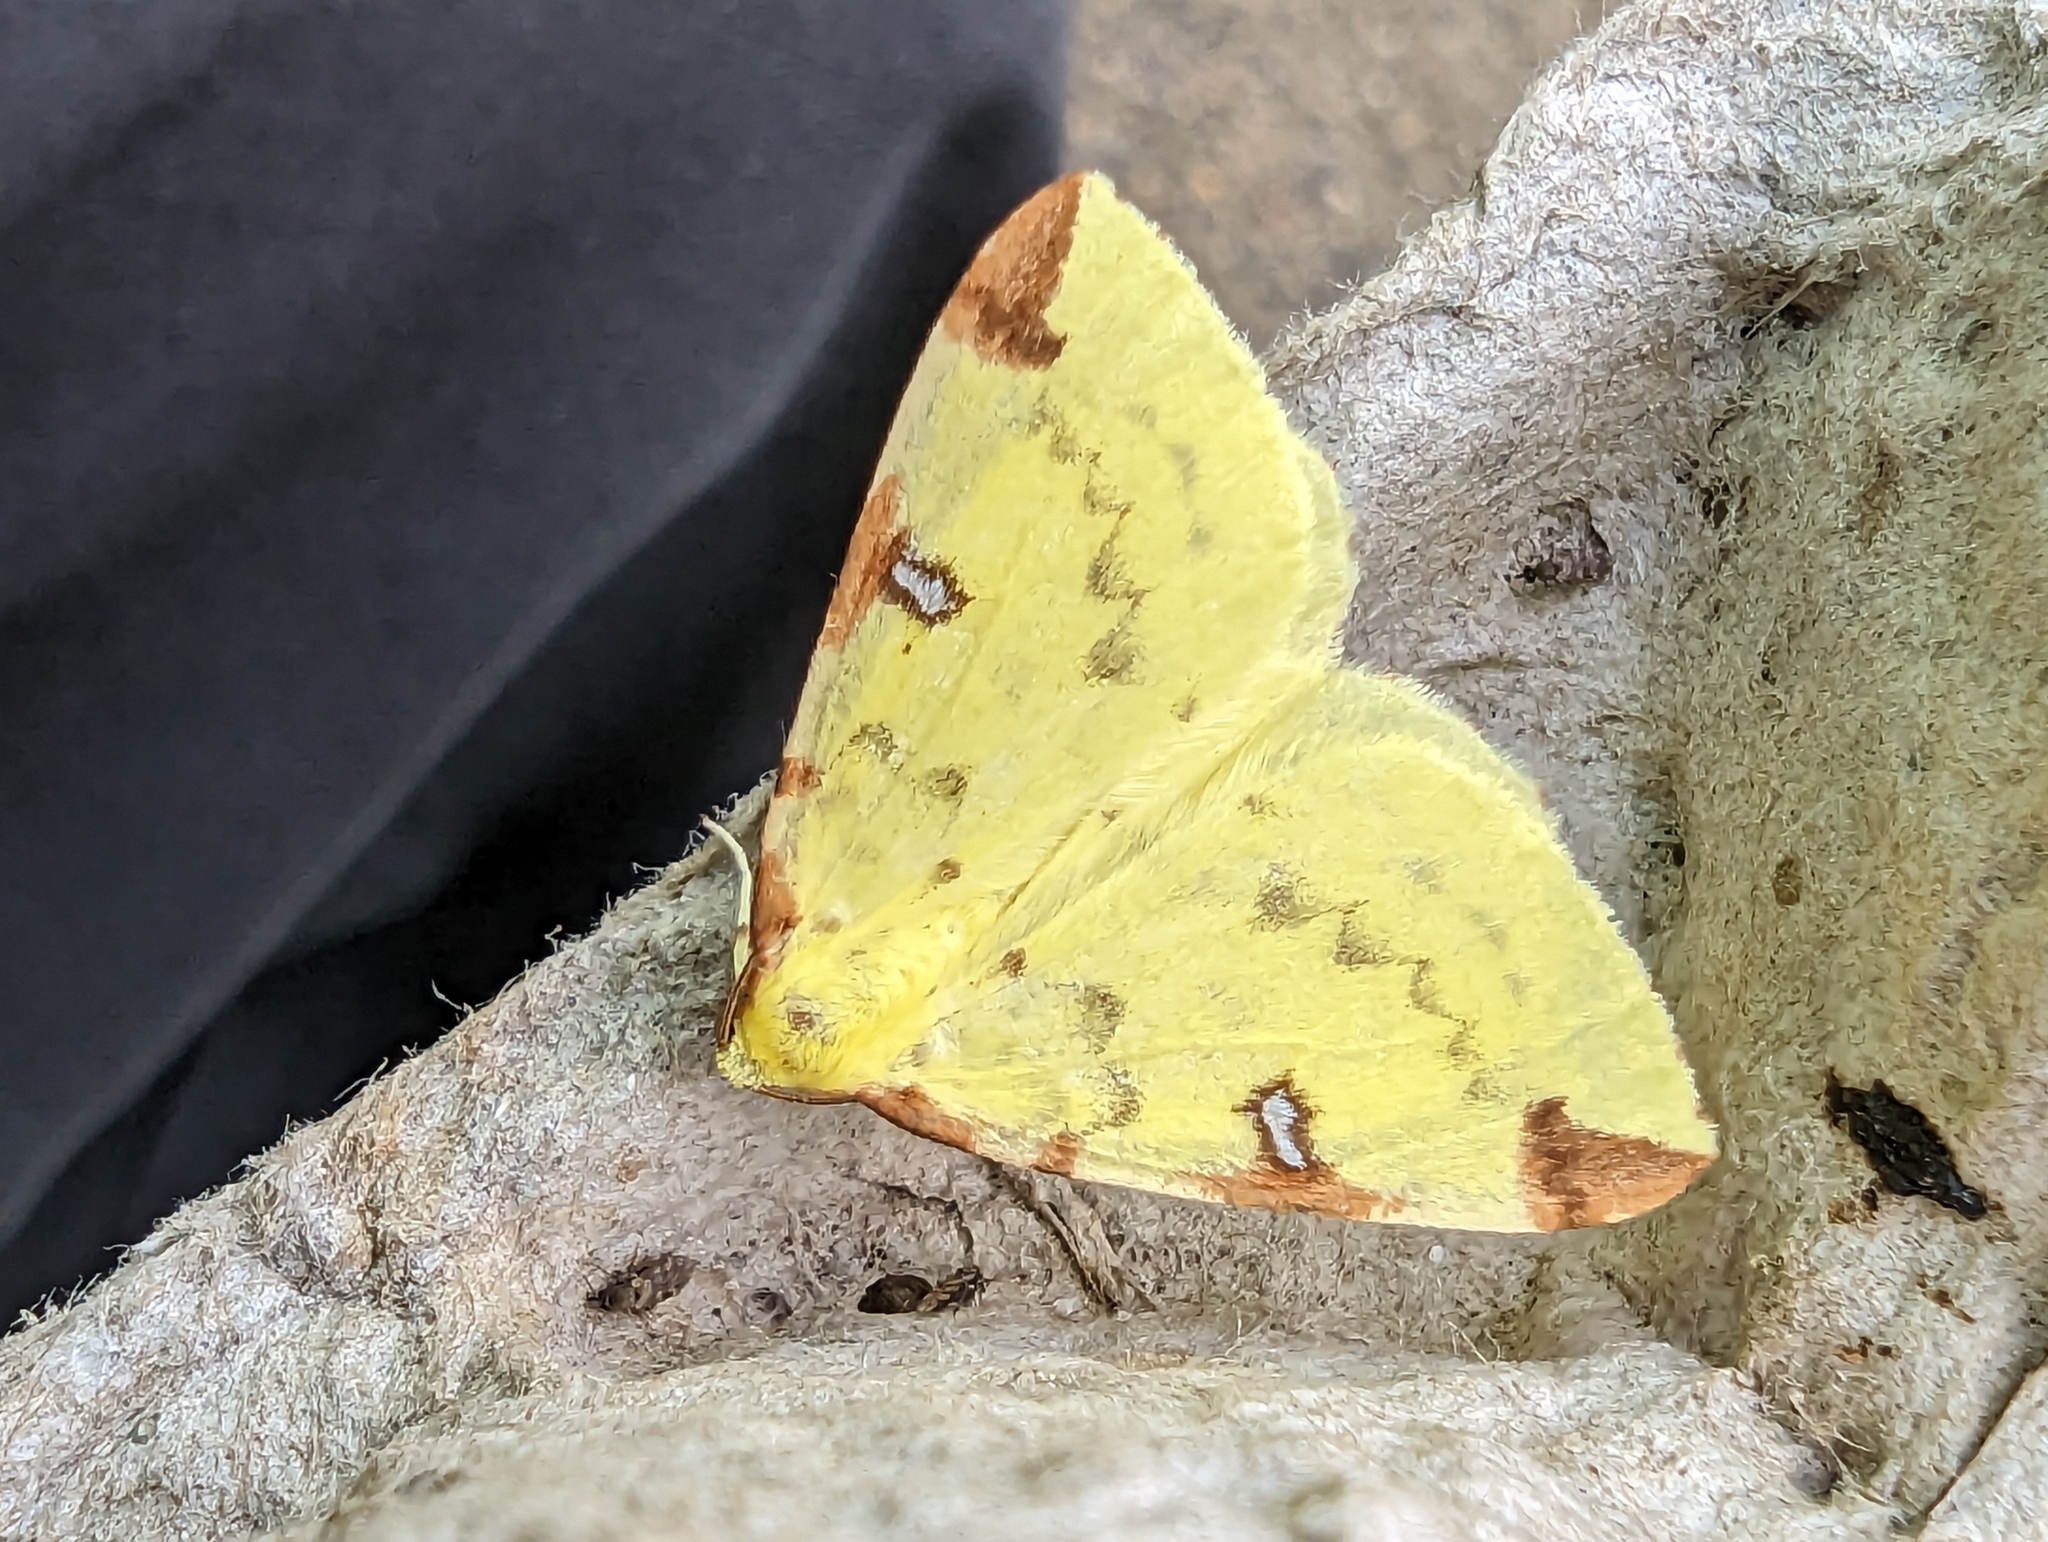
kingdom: Animalia
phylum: Arthropoda
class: Insecta
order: Lepidoptera
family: Geometridae
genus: Opisthograptis
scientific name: Opisthograptis luteolata
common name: Brimstone moth
